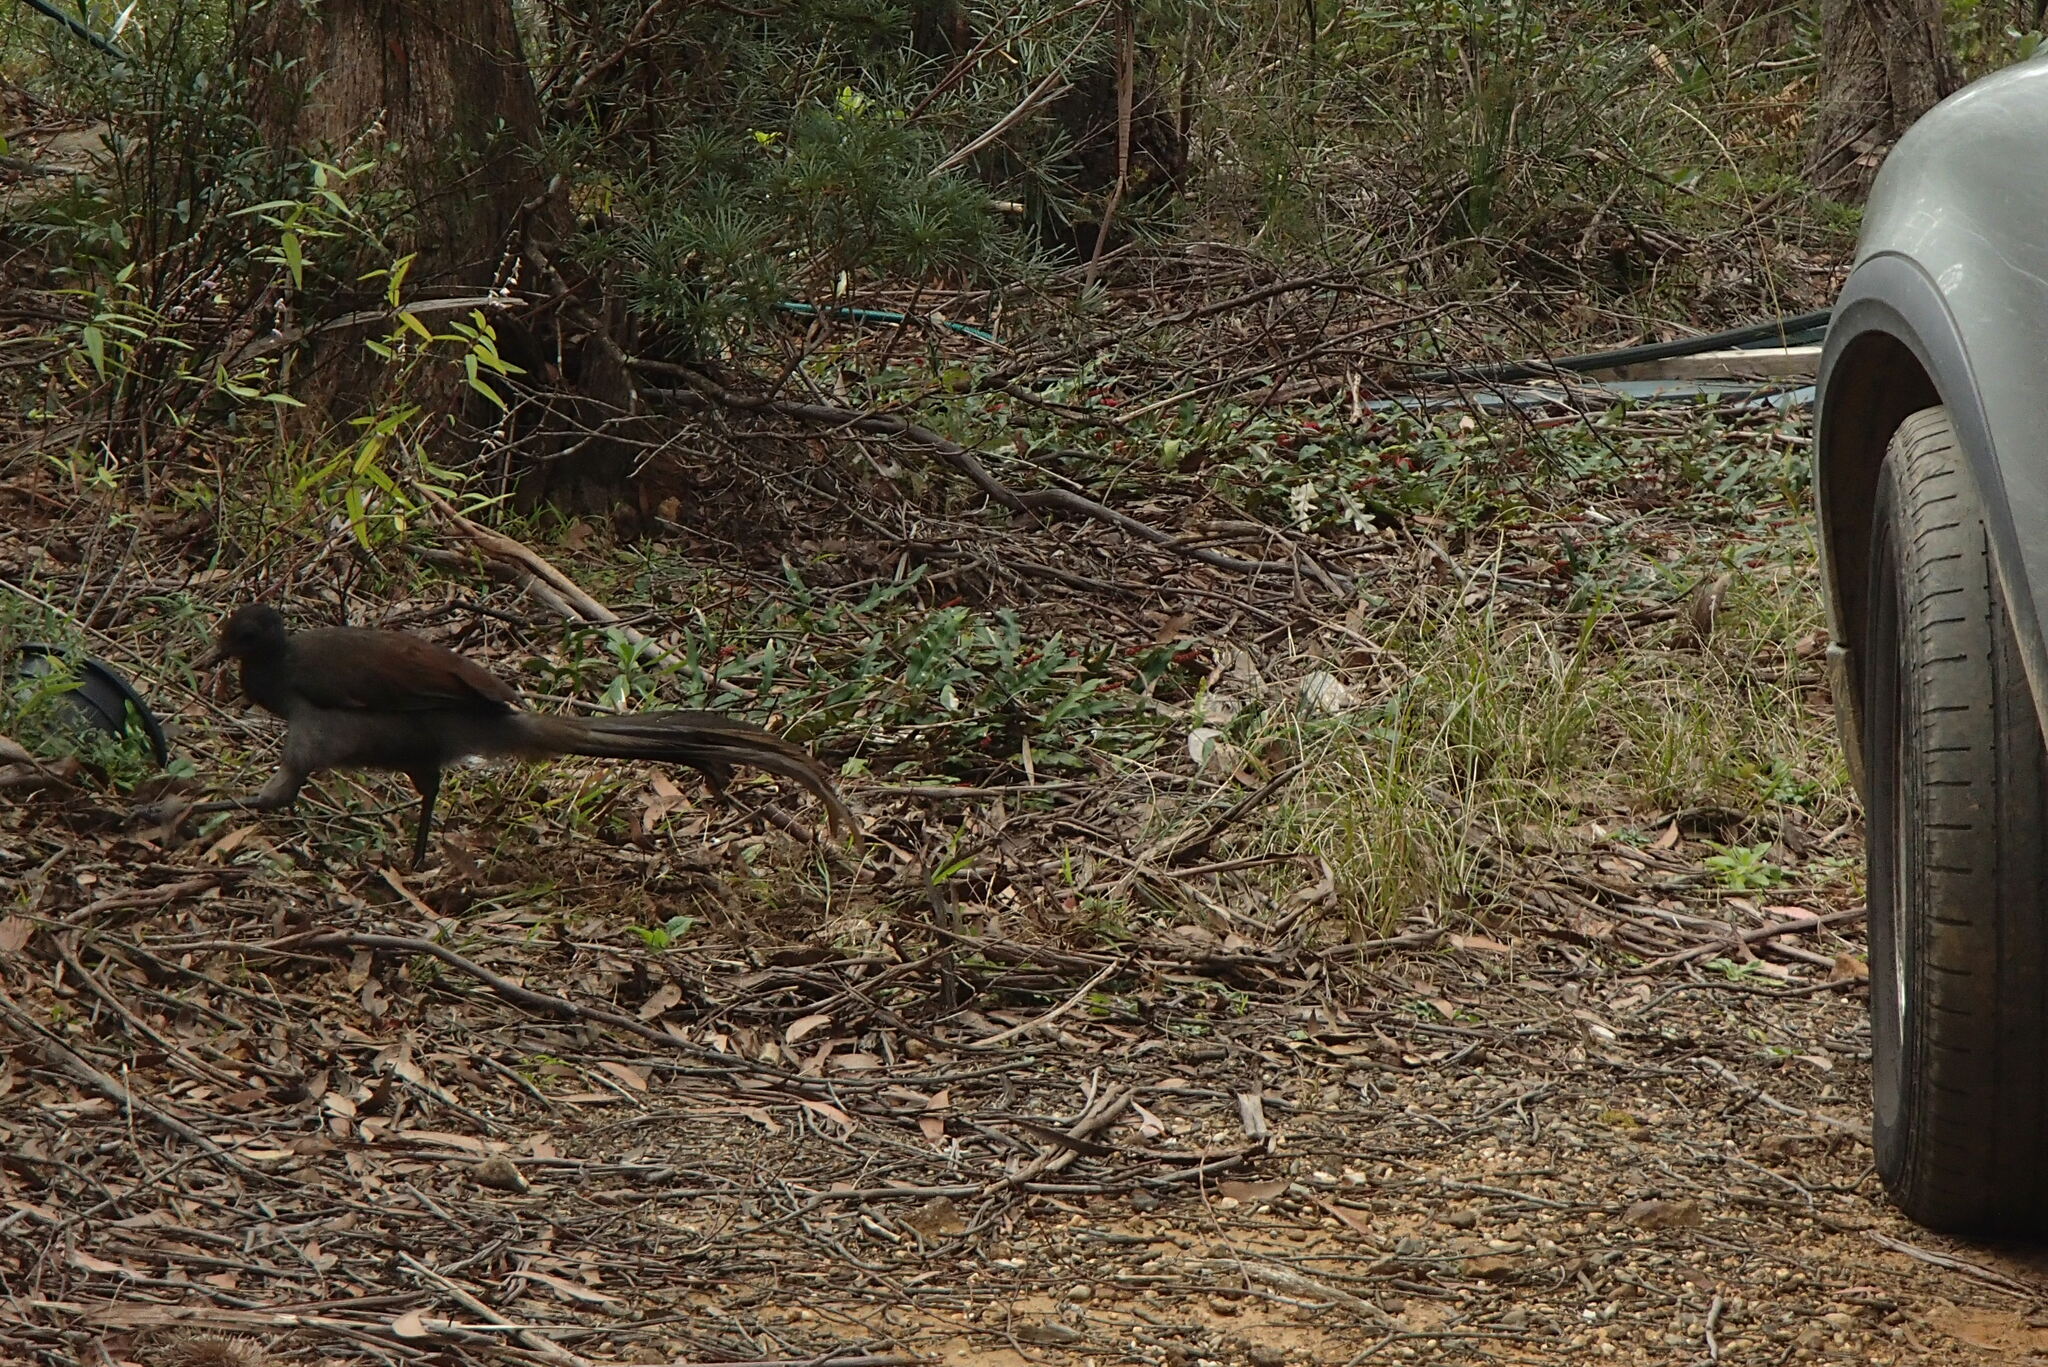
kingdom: Animalia
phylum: Chordata
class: Aves
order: Passeriformes
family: Menuridae
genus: Menura
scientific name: Menura novaehollandiae
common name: Superb lyrebird
